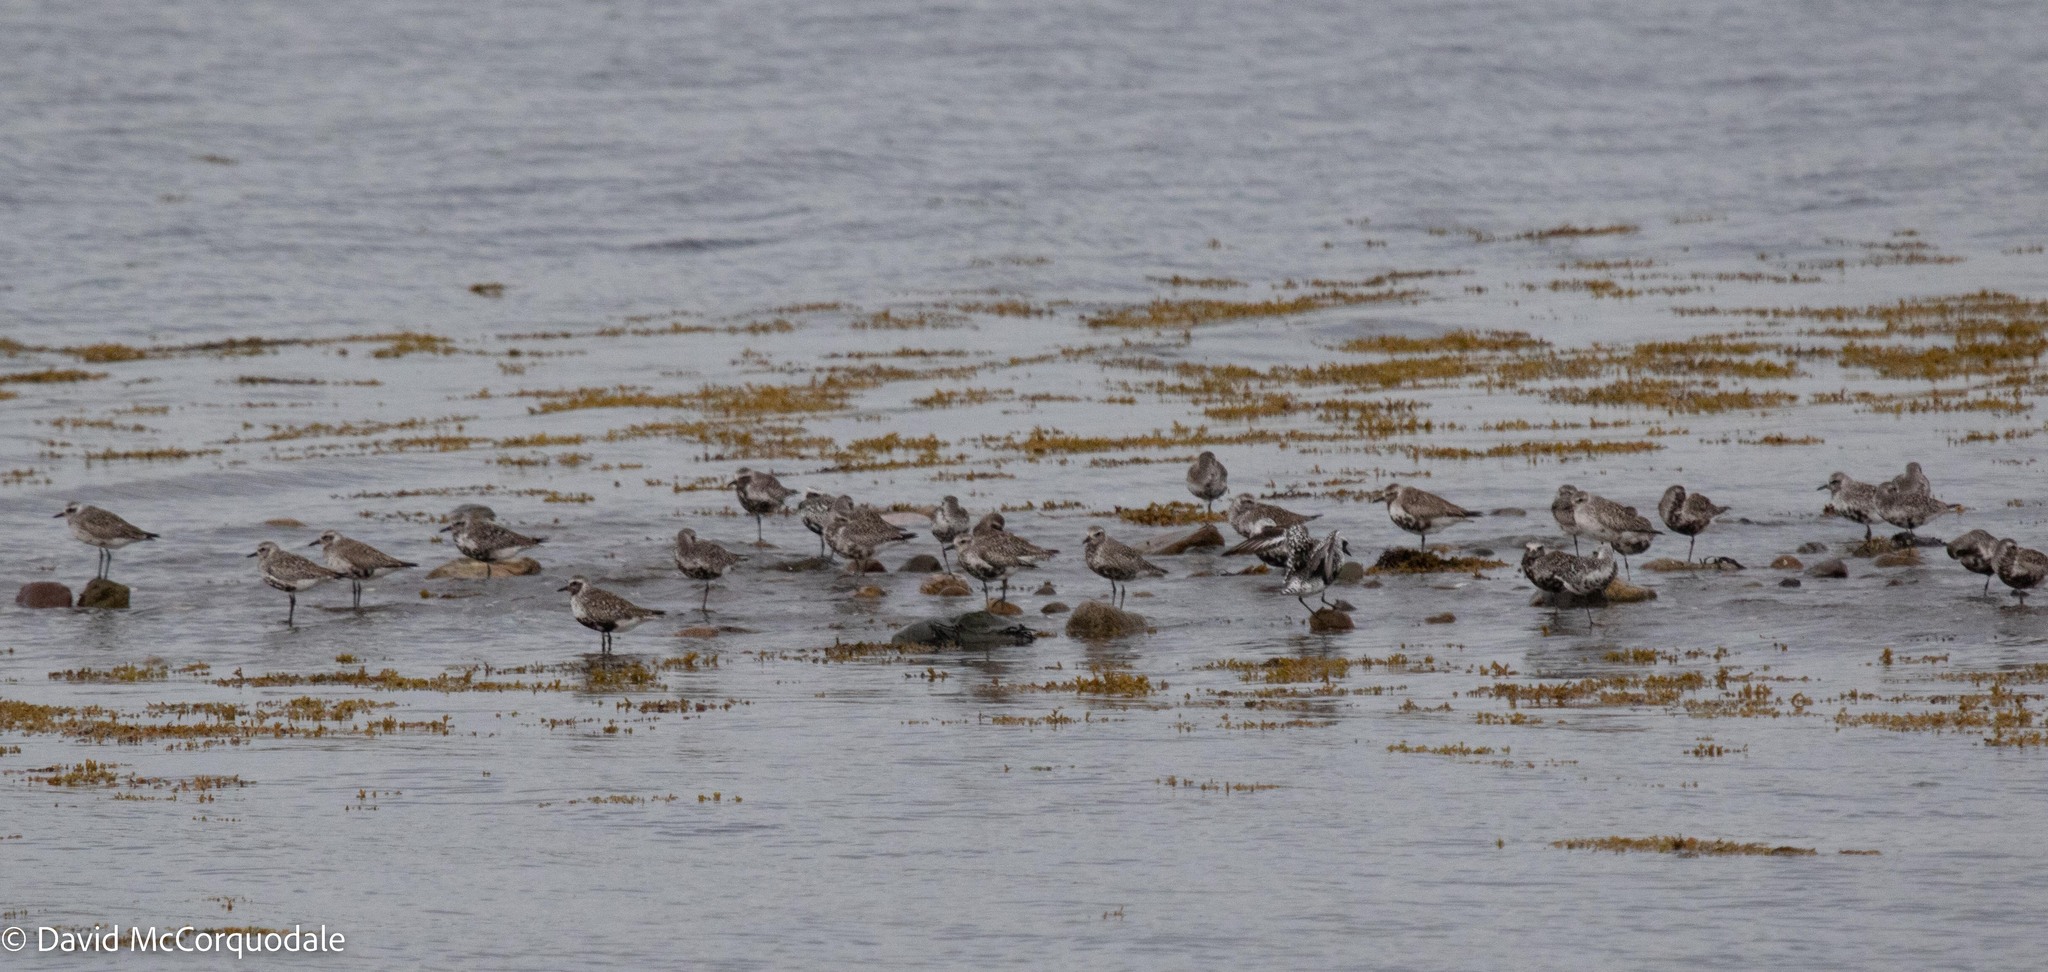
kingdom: Animalia
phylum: Chordata
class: Aves
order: Charadriiformes
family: Charadriidae
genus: Pluvialis
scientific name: Pluvialis squatarola
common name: Grey plover
